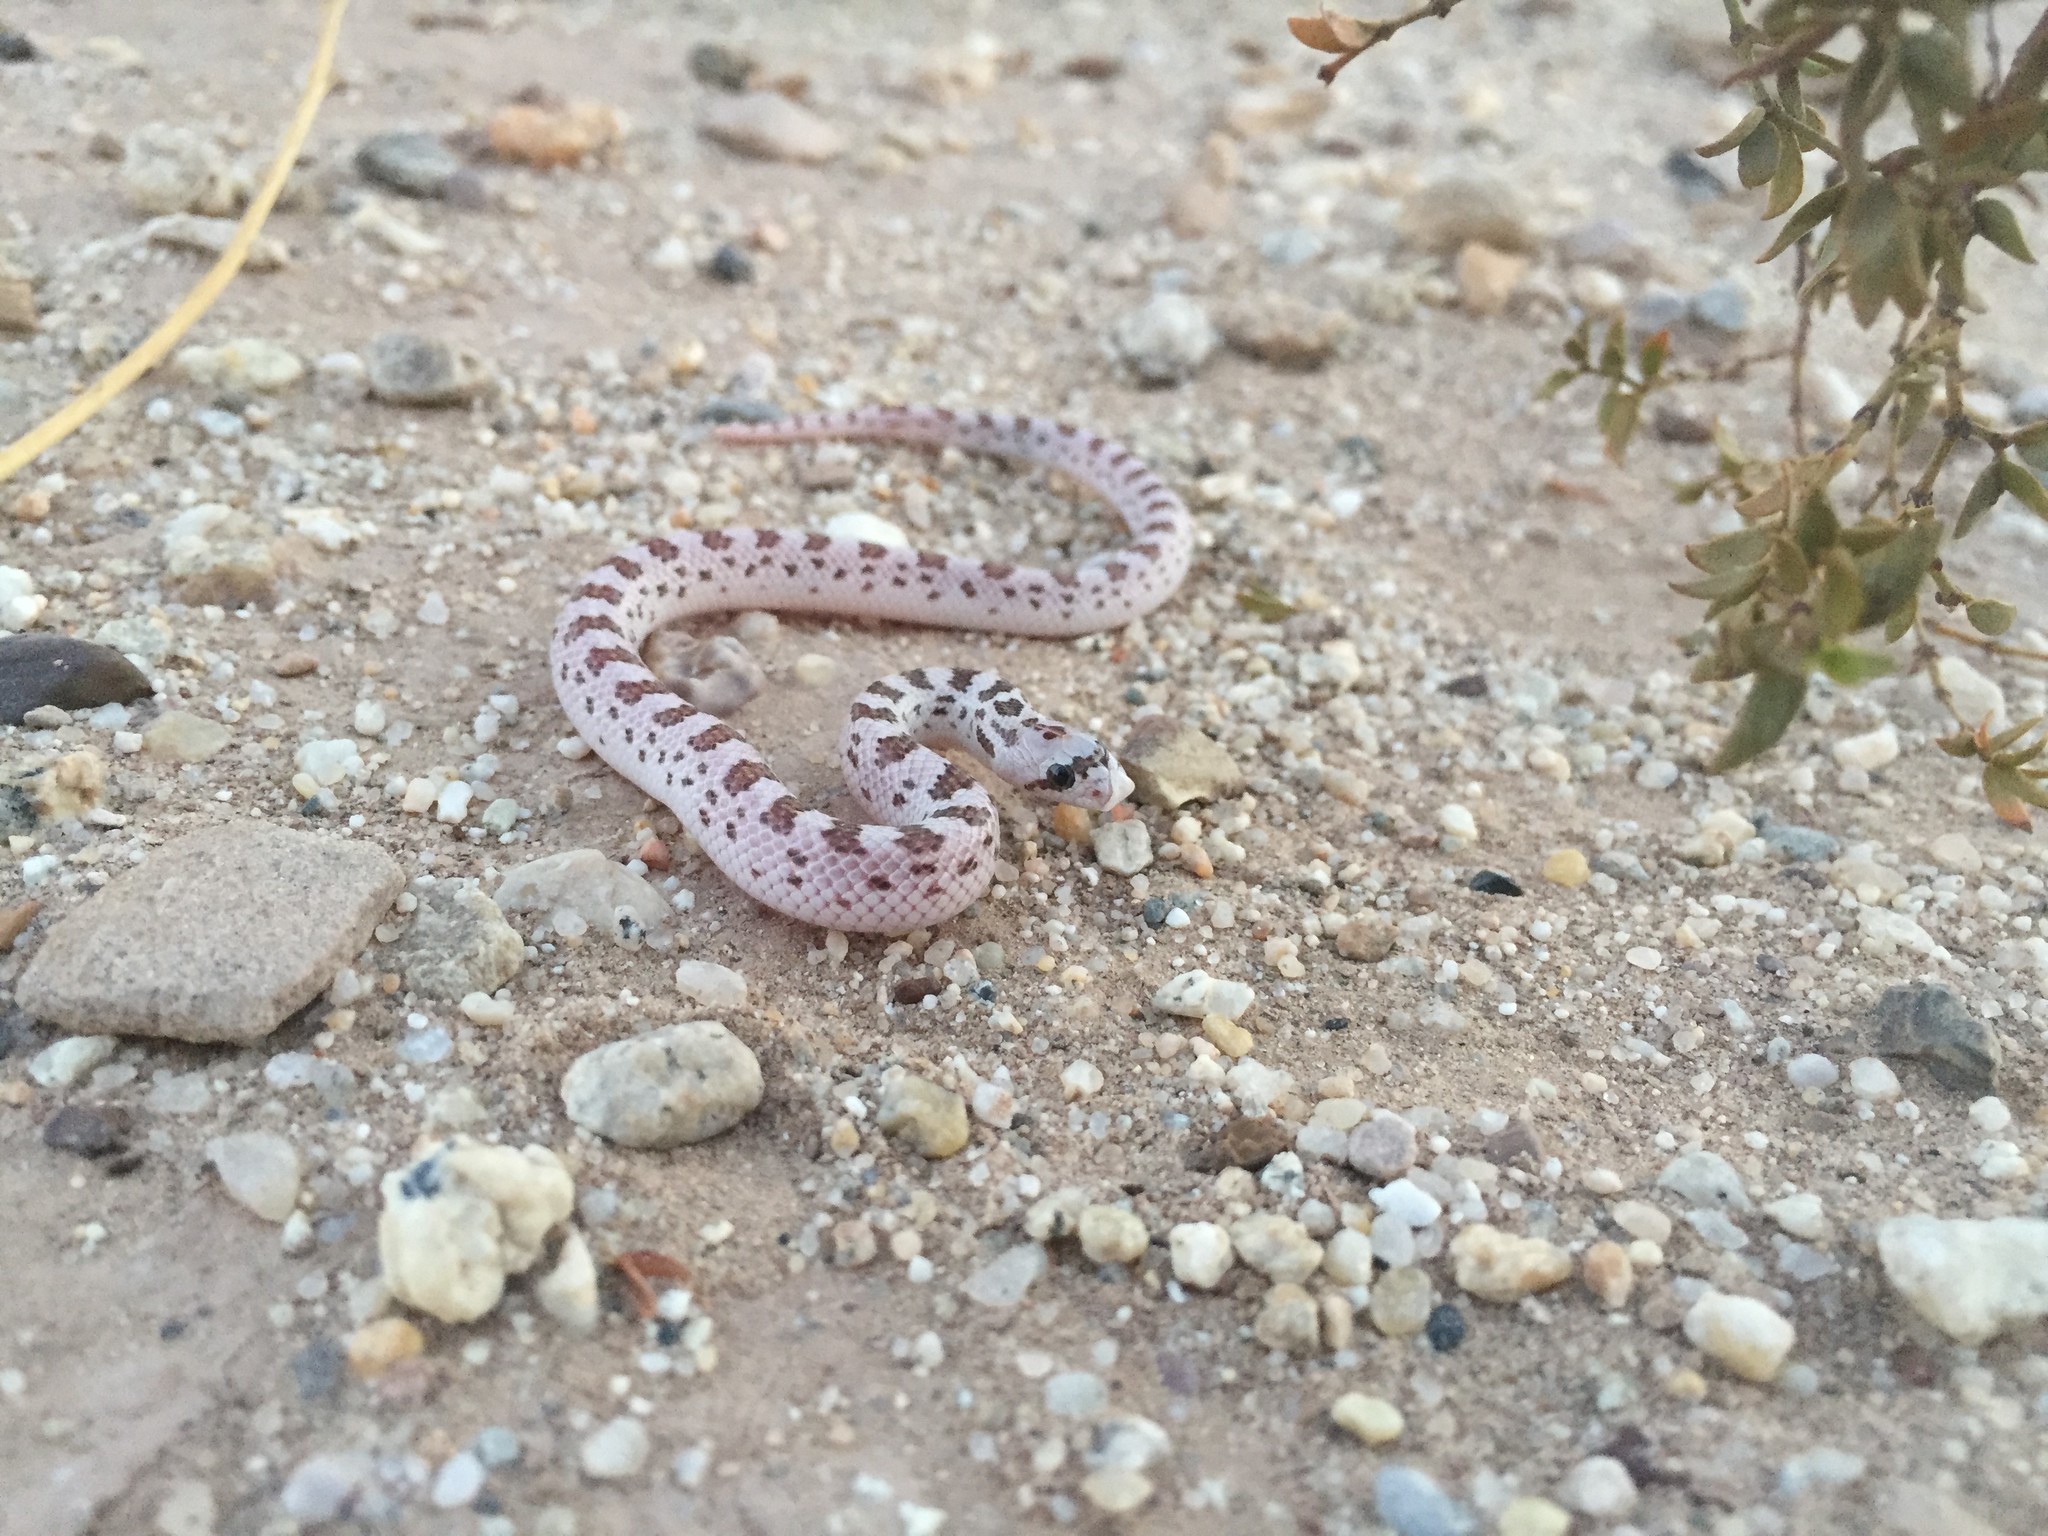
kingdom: Animalia
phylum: Chordata
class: Squamata
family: Colubridae
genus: Phyllorhynchus
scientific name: Phyllorhynchus decurtatus
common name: Spotted leafnose snake
